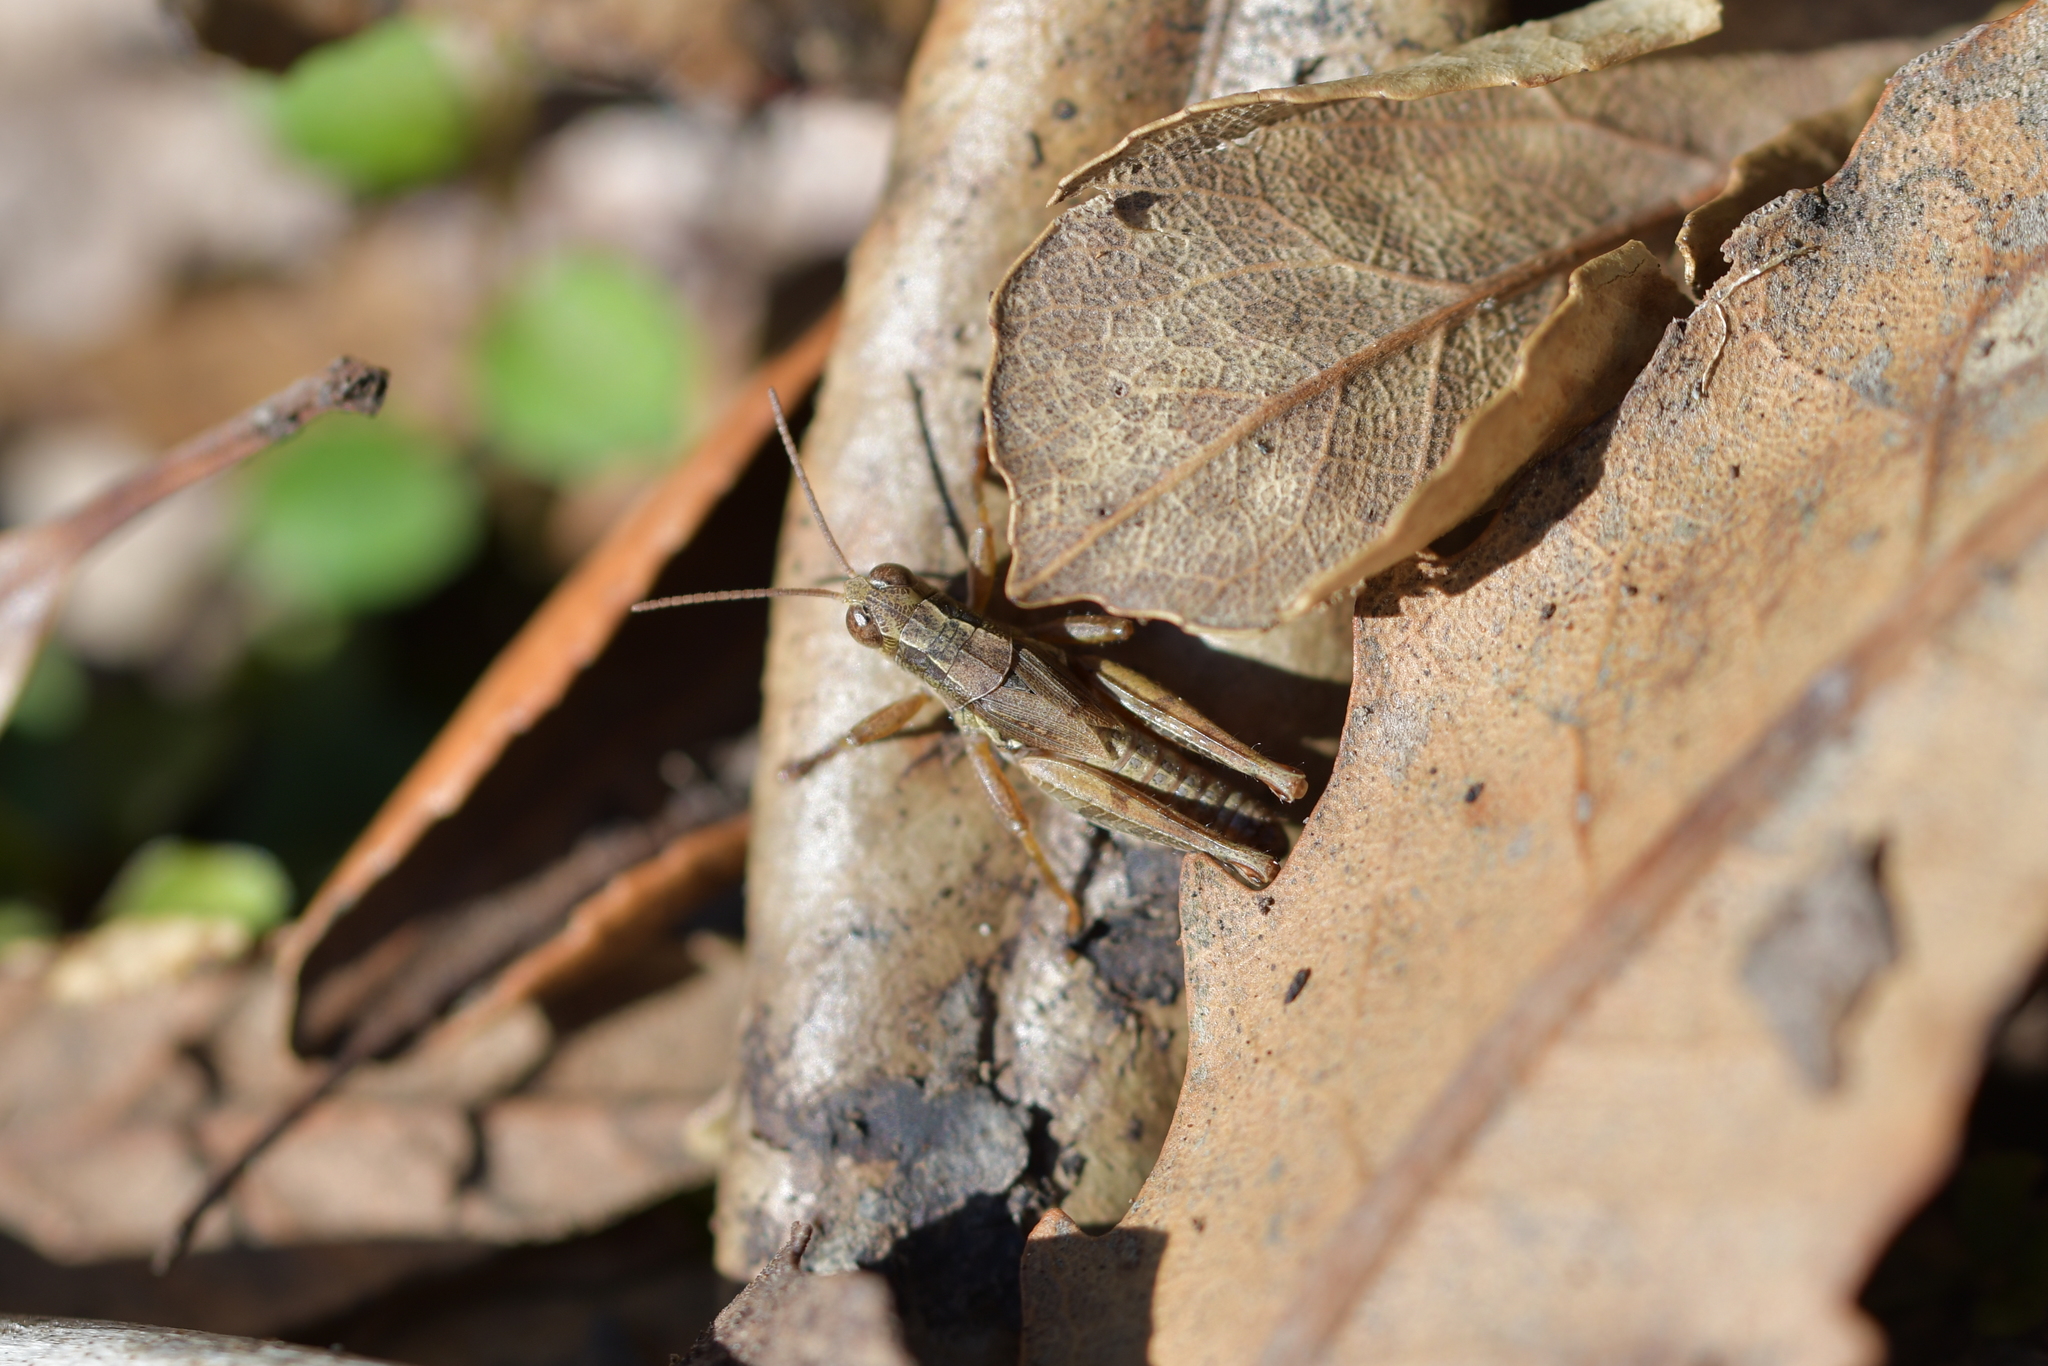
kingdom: Animalia
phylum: Arthropoda
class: Insecta
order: Orthoptera
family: Acrididae
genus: Phaulacridium
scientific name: Phaulacridium marginale
